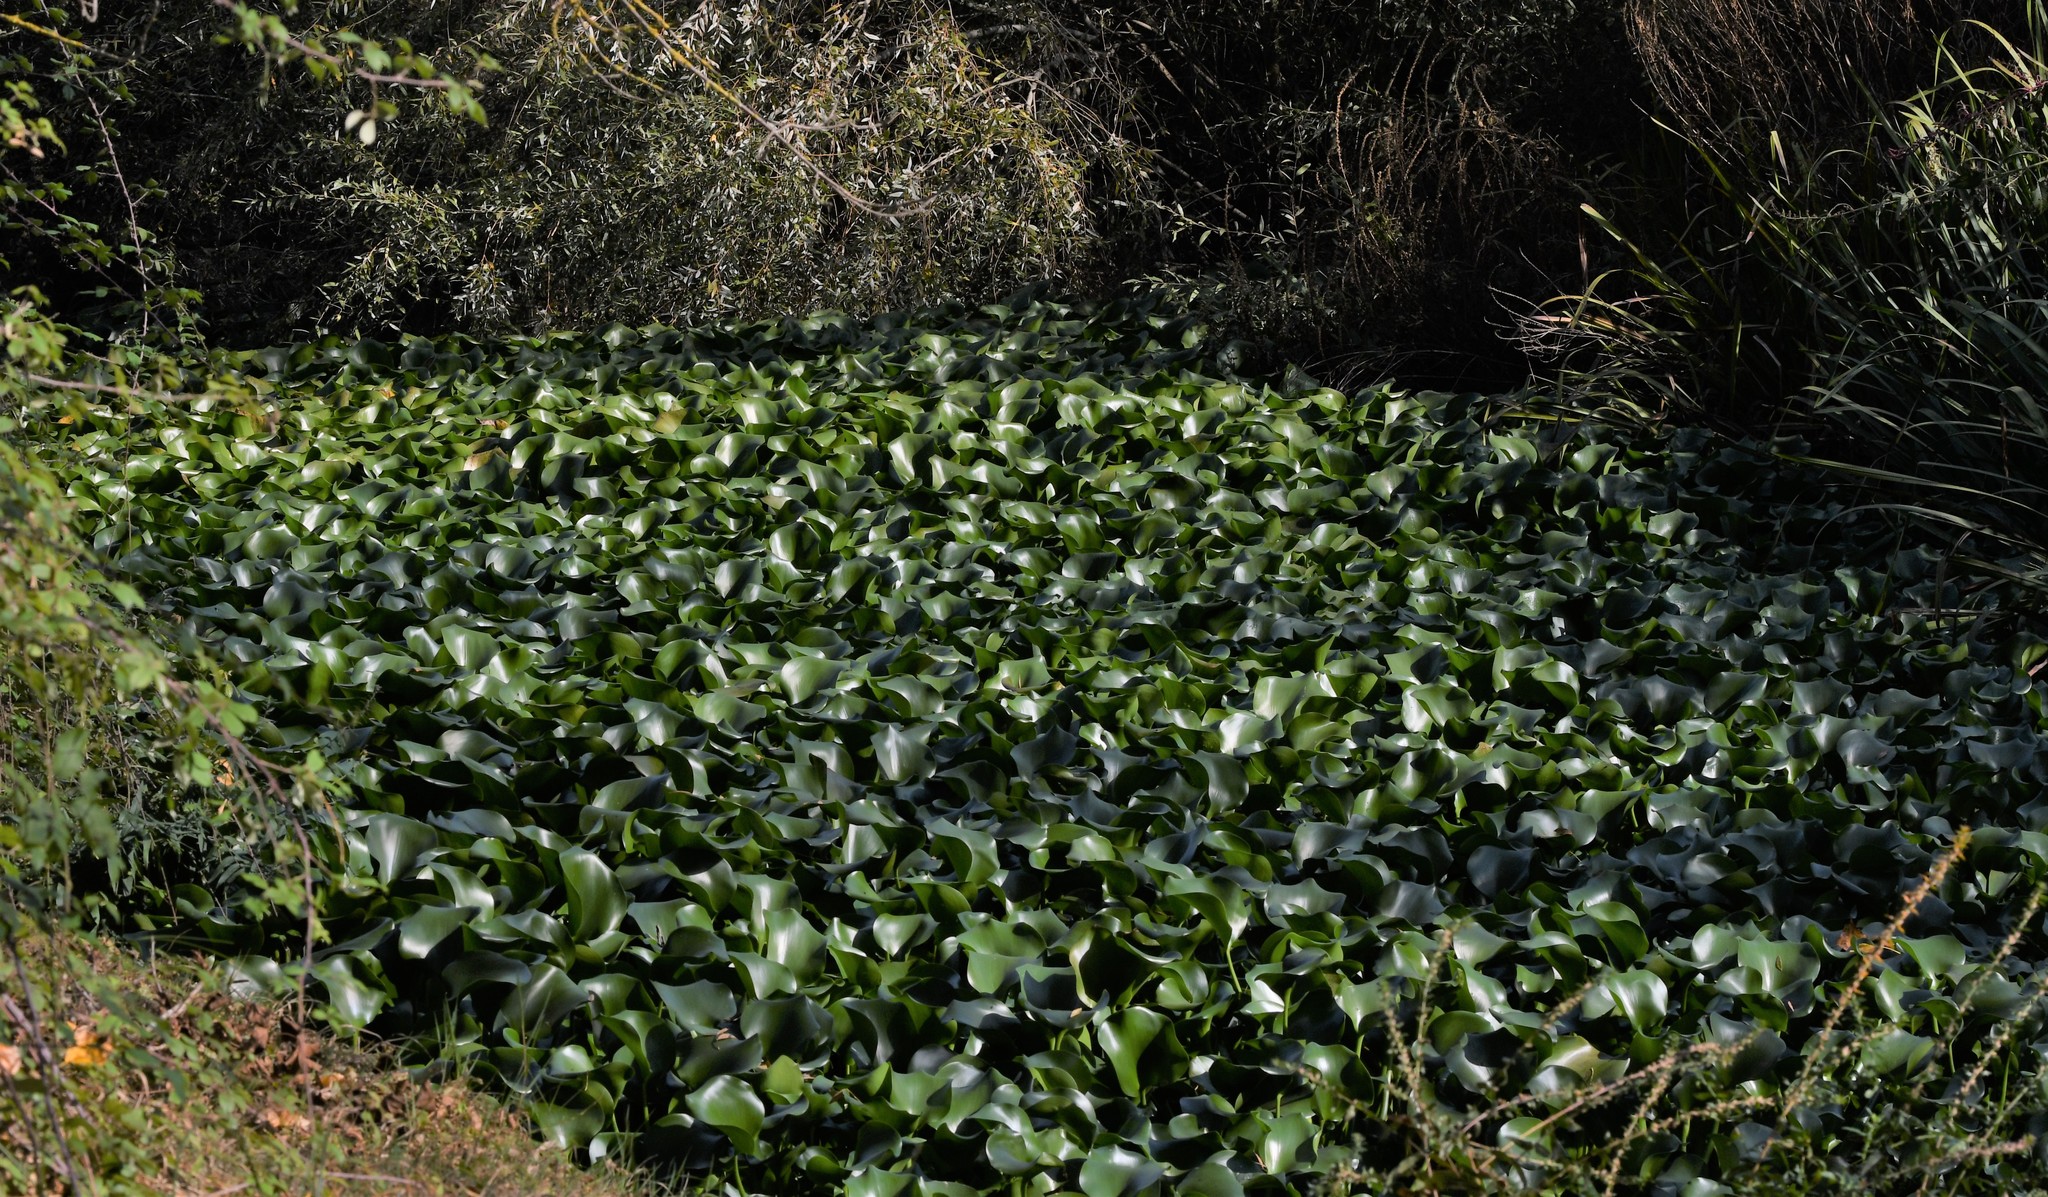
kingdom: Plantae
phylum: Tracheophyta
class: Liliopsida
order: Commelinales
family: Pontederiaceae
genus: Pontederia
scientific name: Pontederia crassipes
